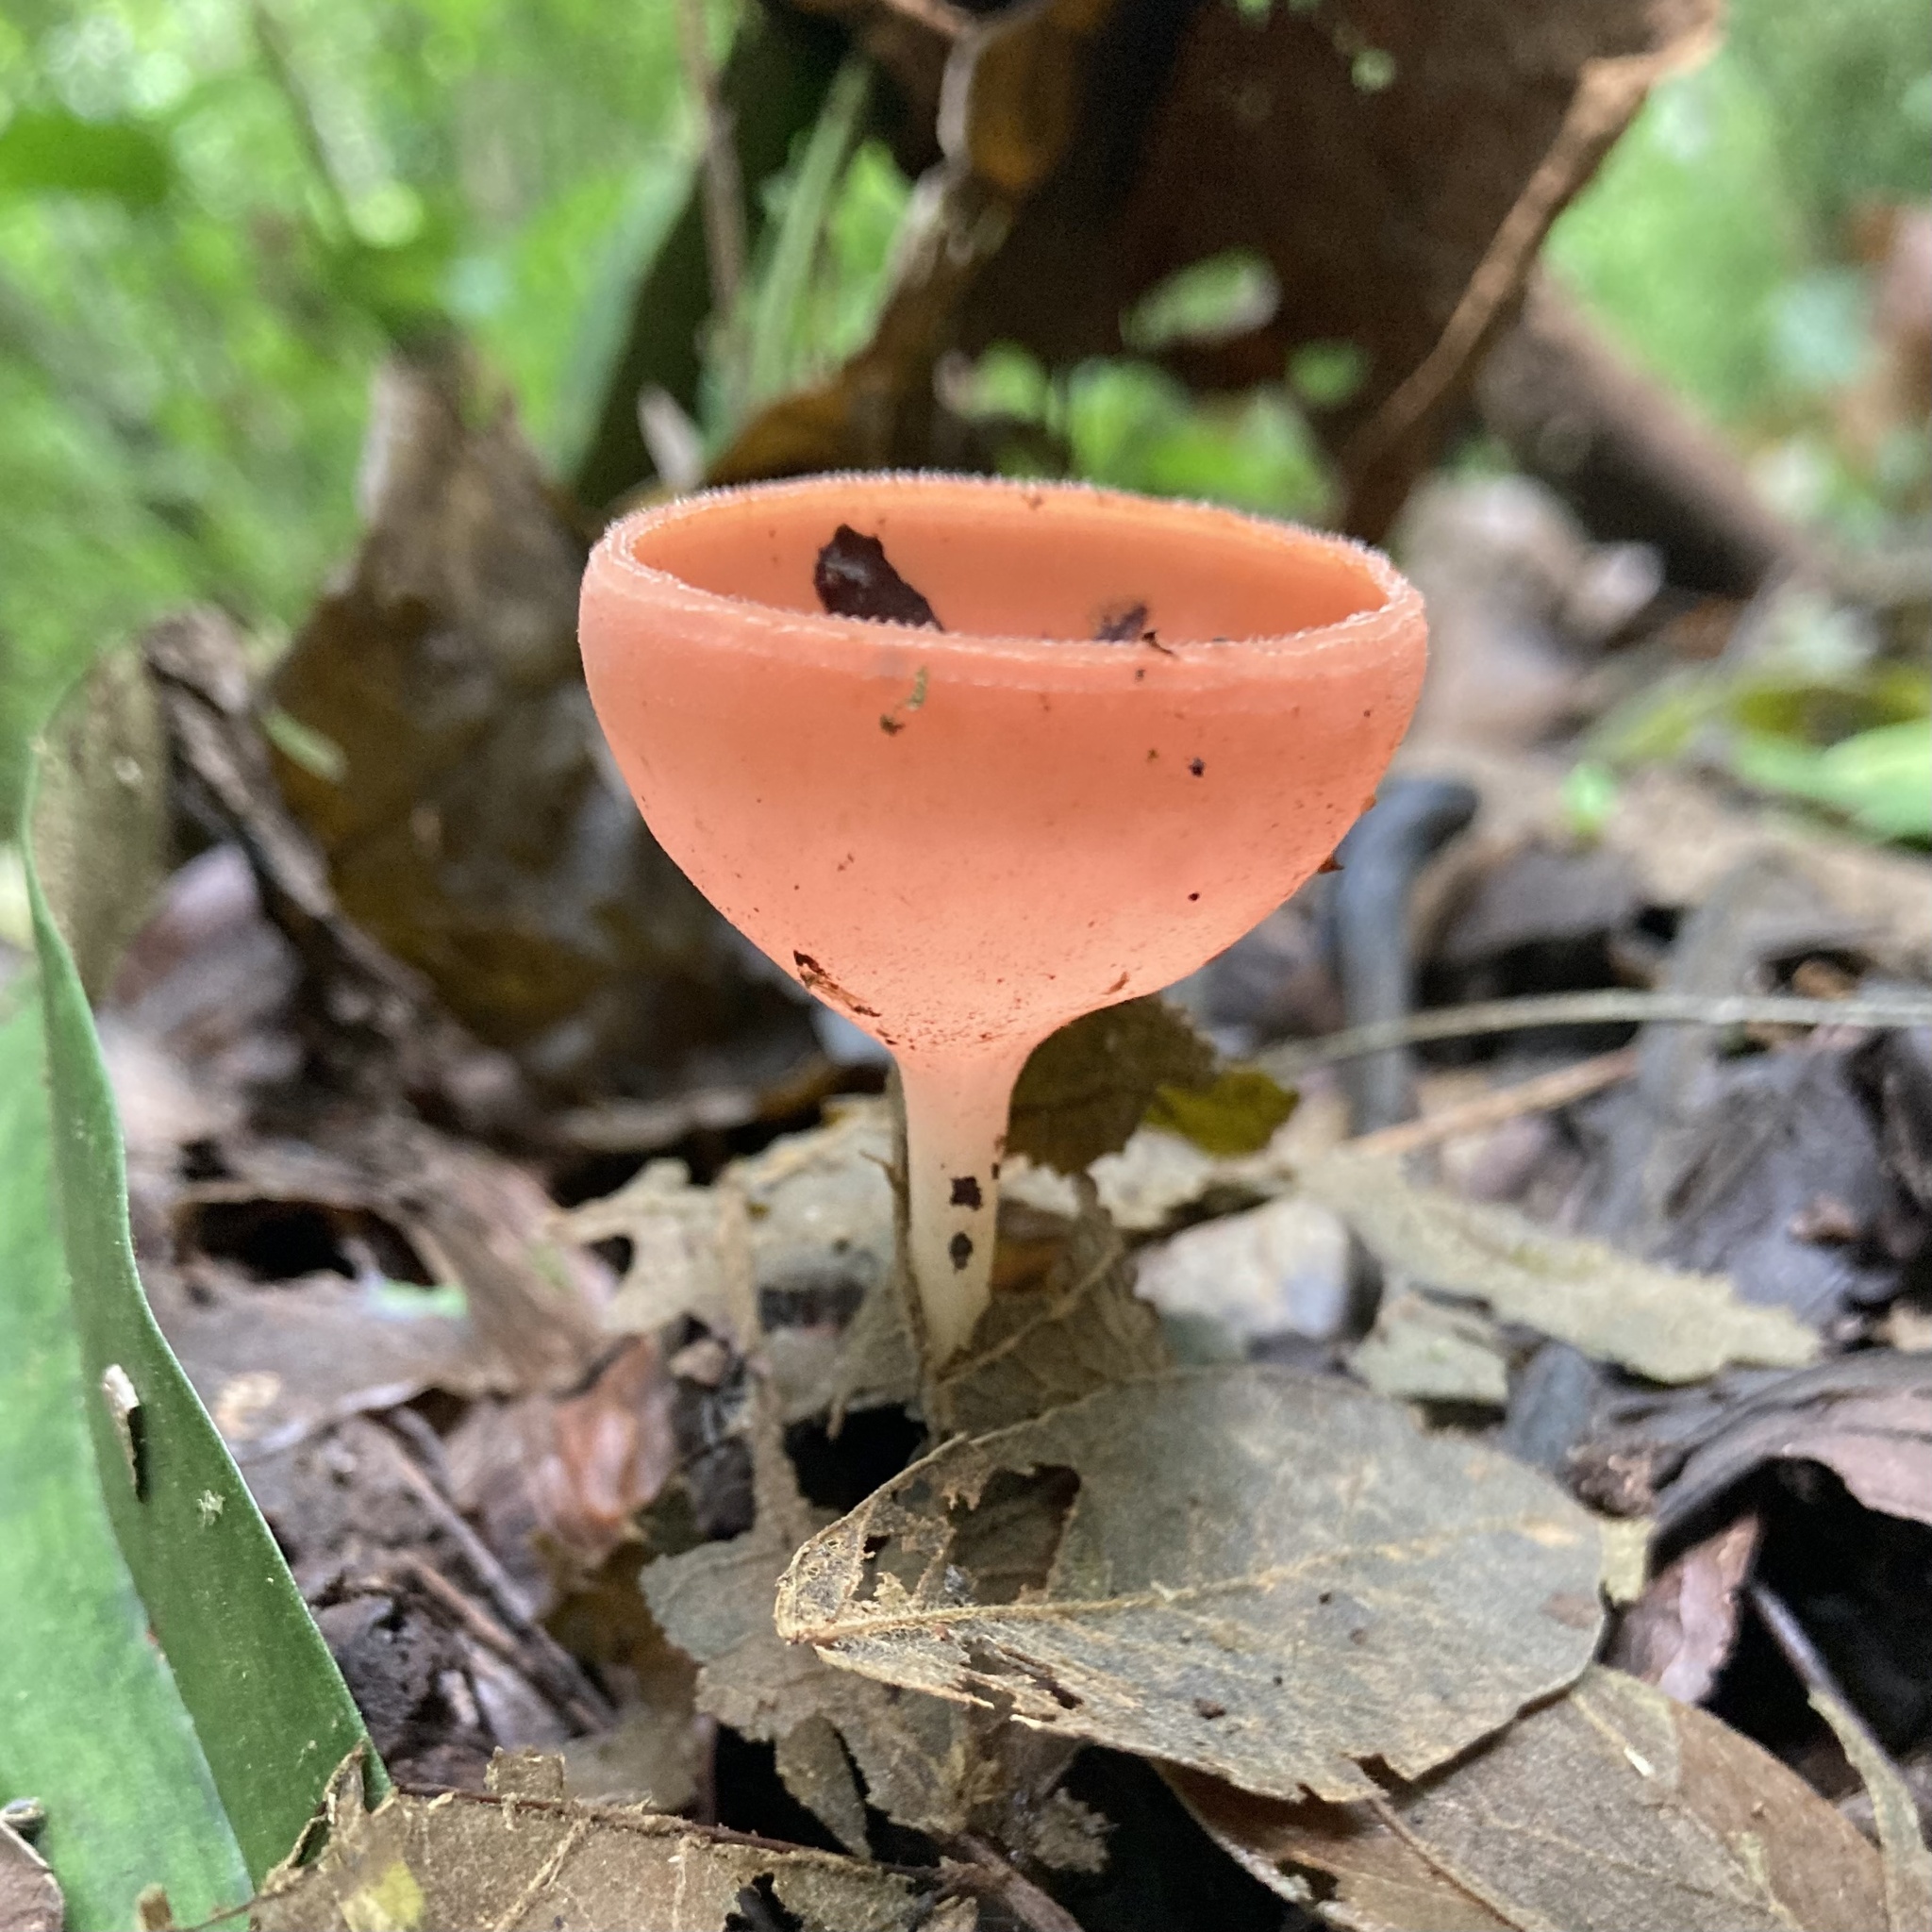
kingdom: Fungi
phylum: Ascomycota
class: Pezizomycetes
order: Pezizales
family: Sarcoscyphaceae
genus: Cookeina
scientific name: Cookeina speciosa
